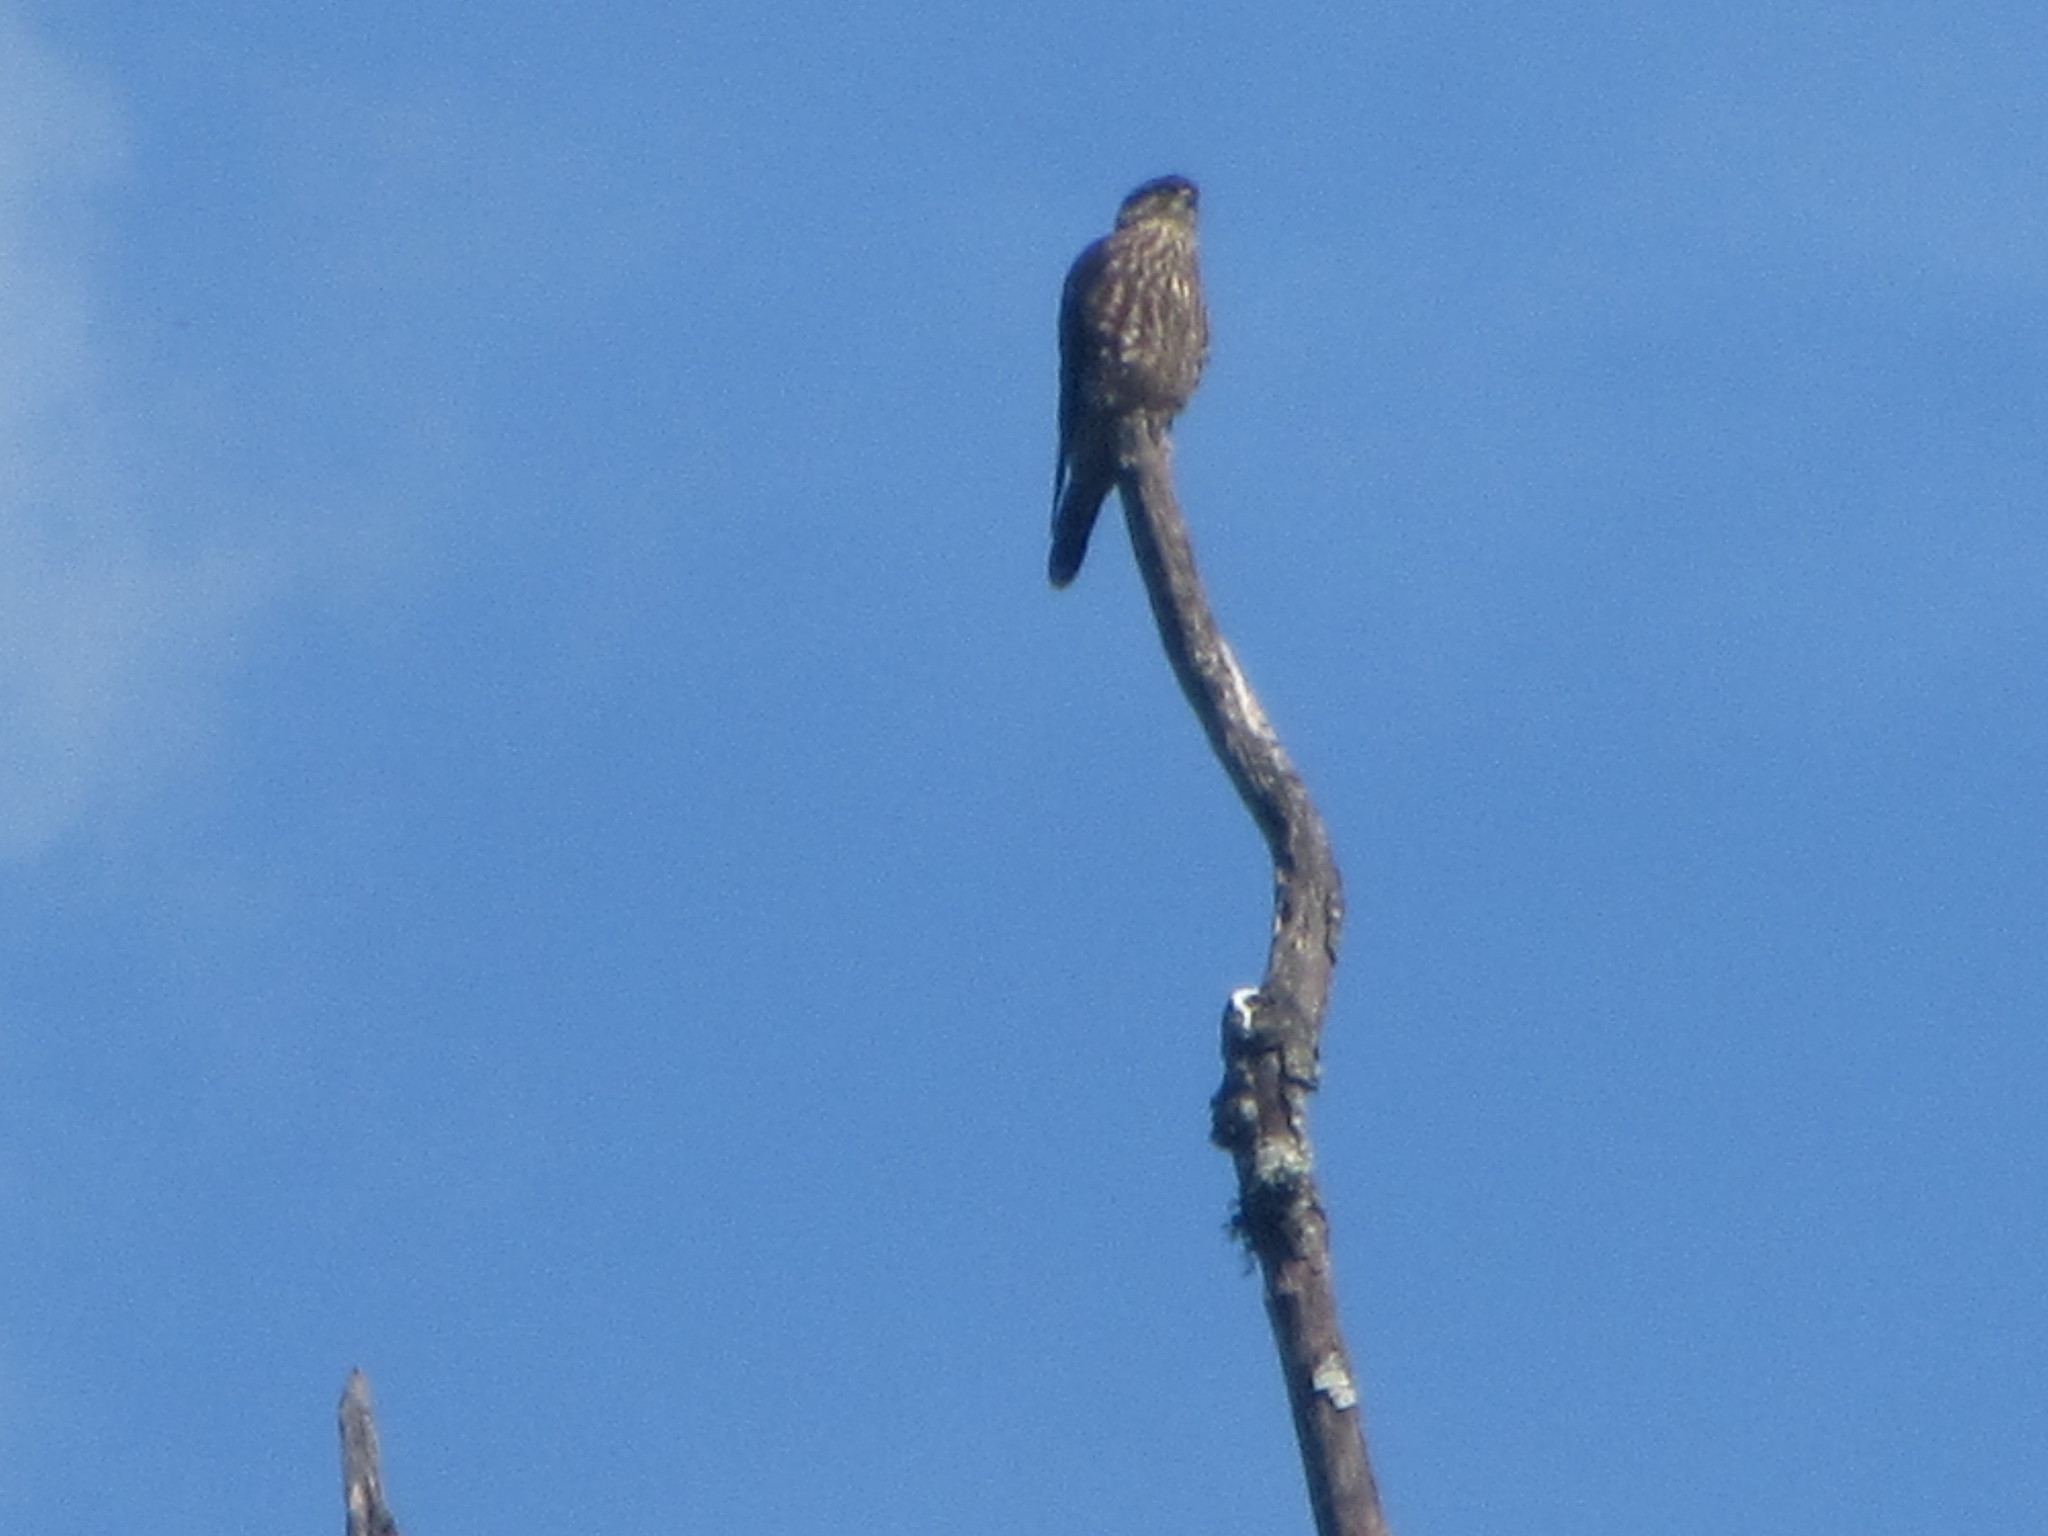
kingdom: Animalia
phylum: Chordata
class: Aves
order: Falconiformes
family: Falconidae
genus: Falco
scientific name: Falco columbarius
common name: Merlin
